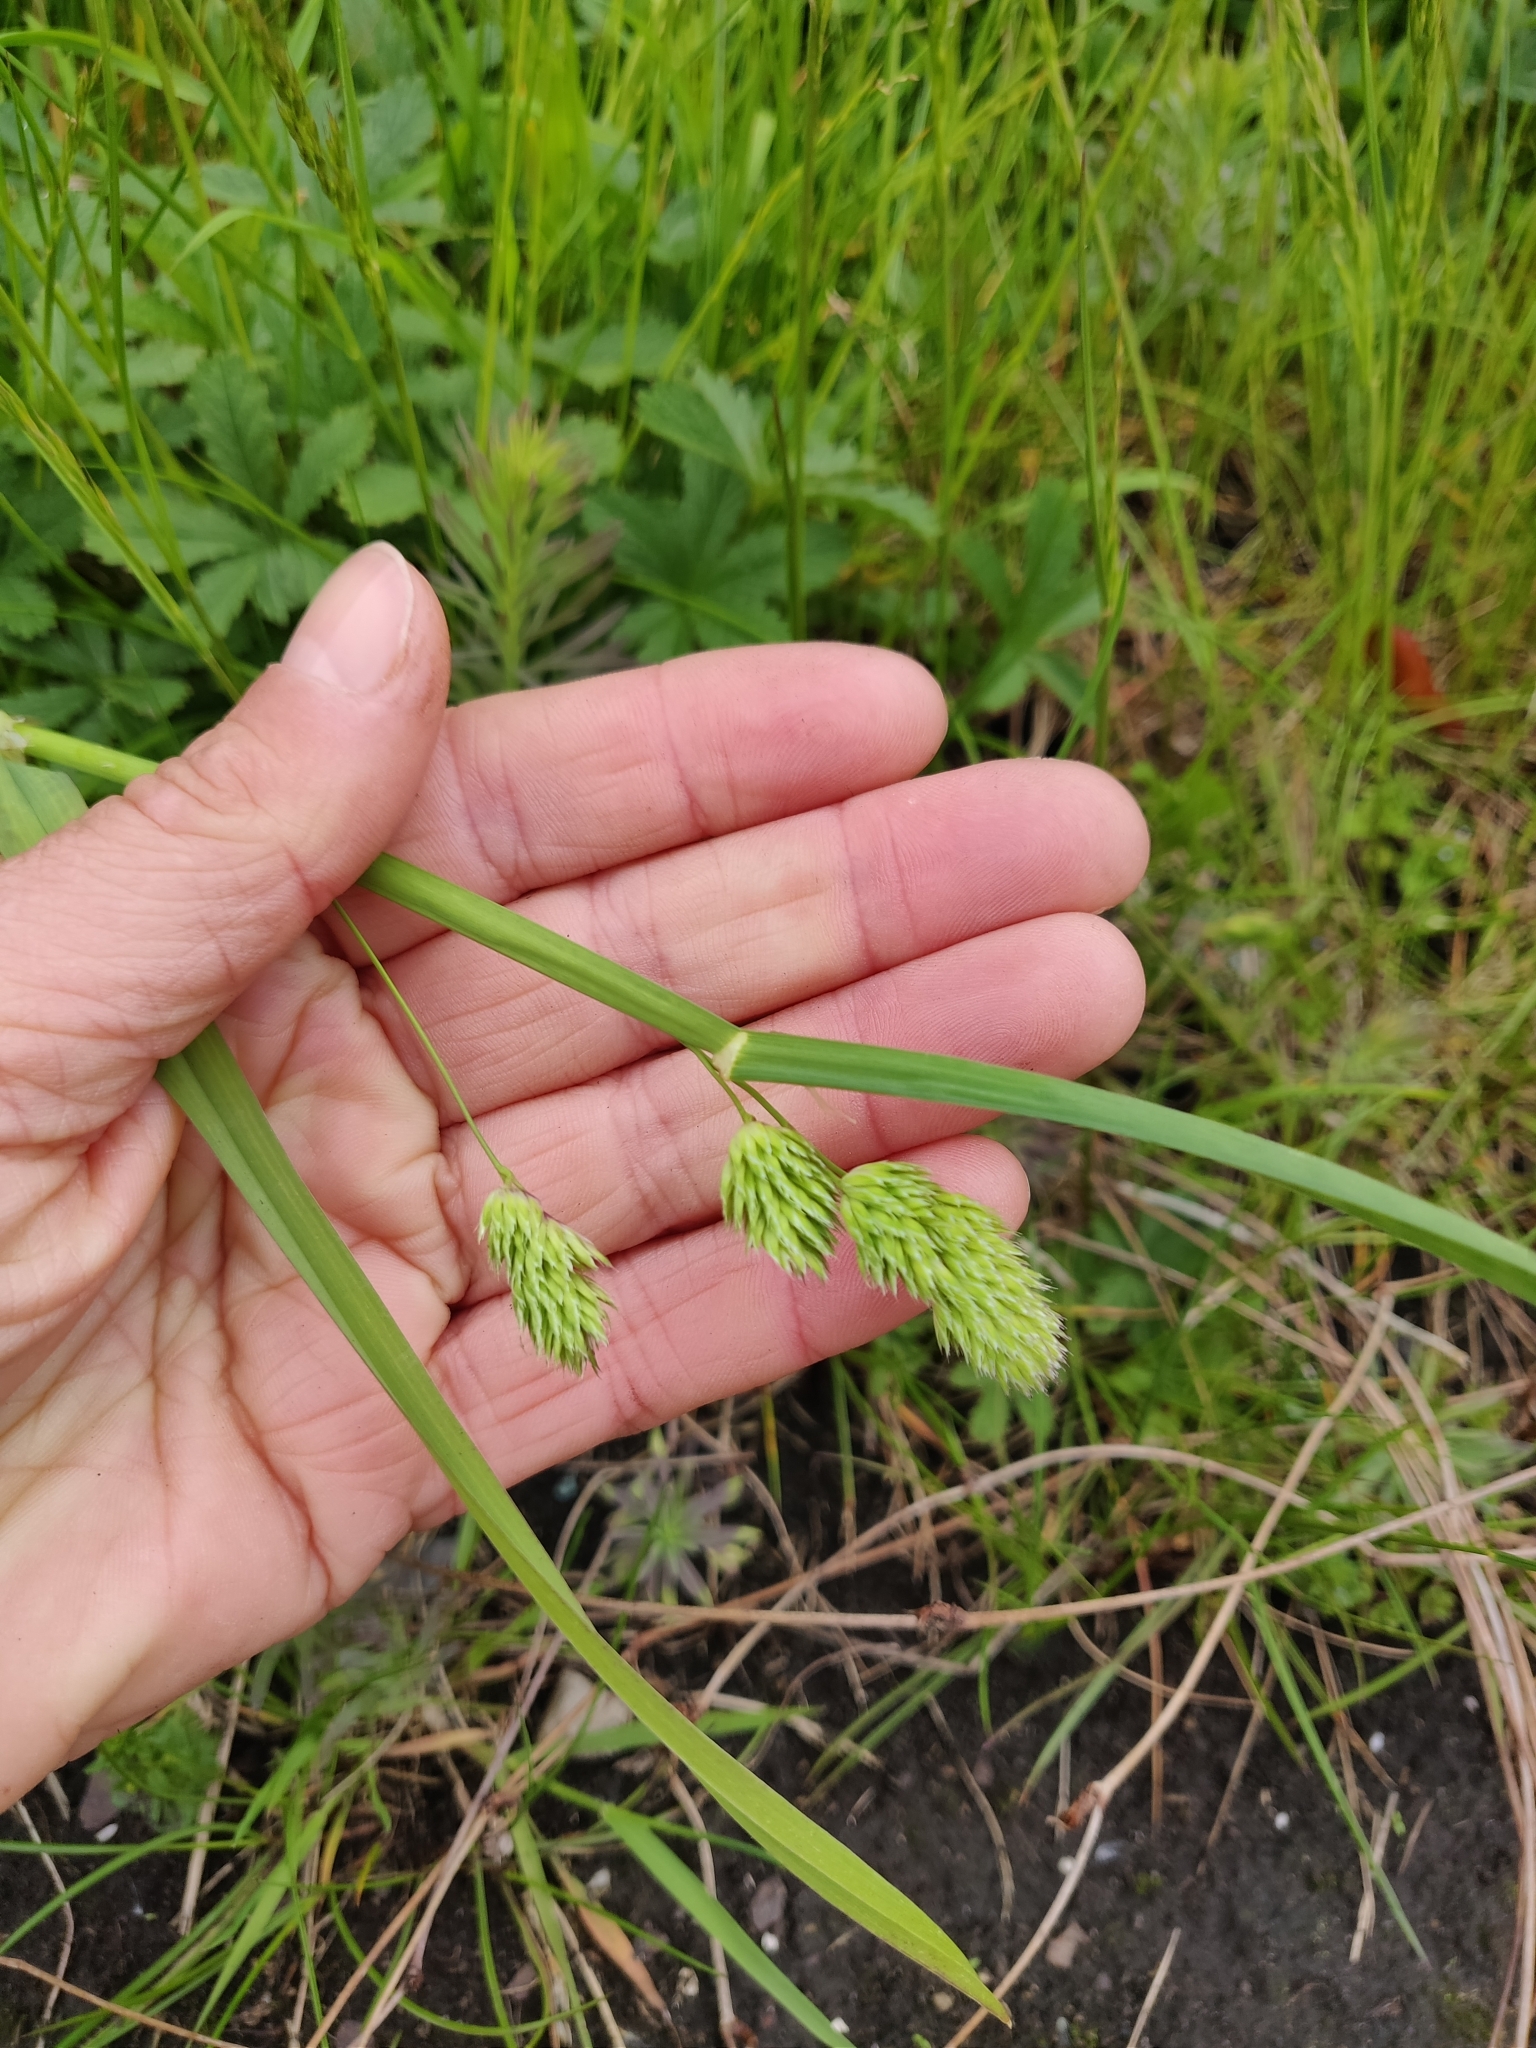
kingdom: Plantae
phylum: Tracheophyta
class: Liliopsida
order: Poales
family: Poaceae
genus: Dactylis
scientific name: Dactylis glomerata
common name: Orchardgrass
